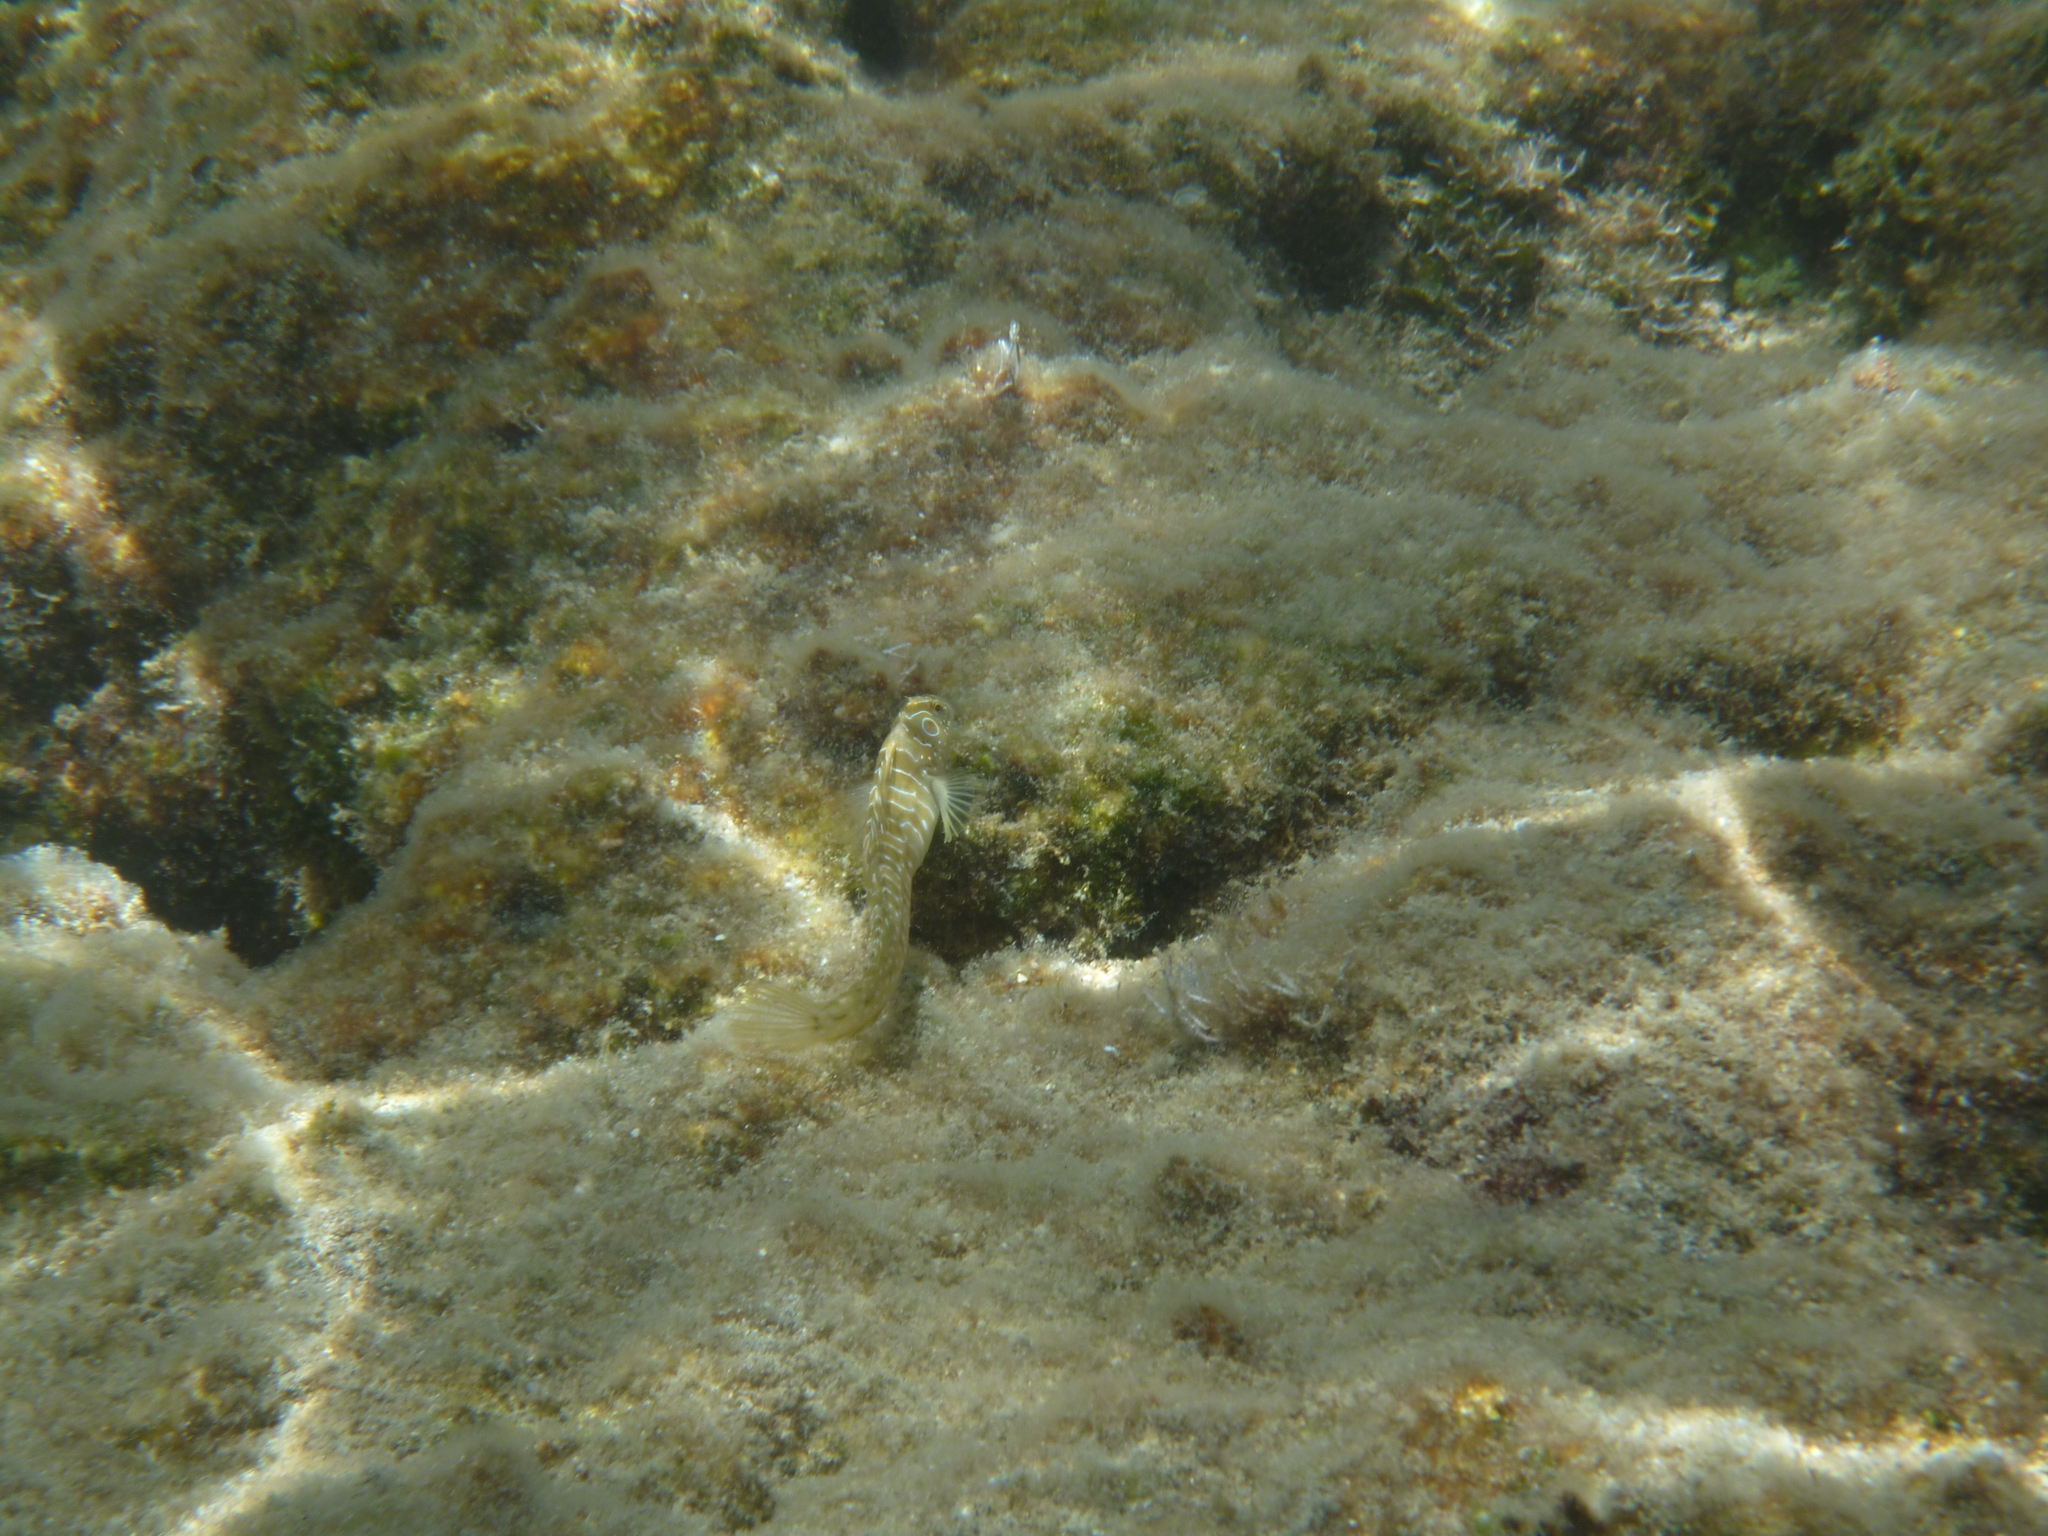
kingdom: Animalia
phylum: Chordata
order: Perciformes
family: Blenniidae
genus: Salaria
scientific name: Salaria pavo
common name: Peacock blenny
